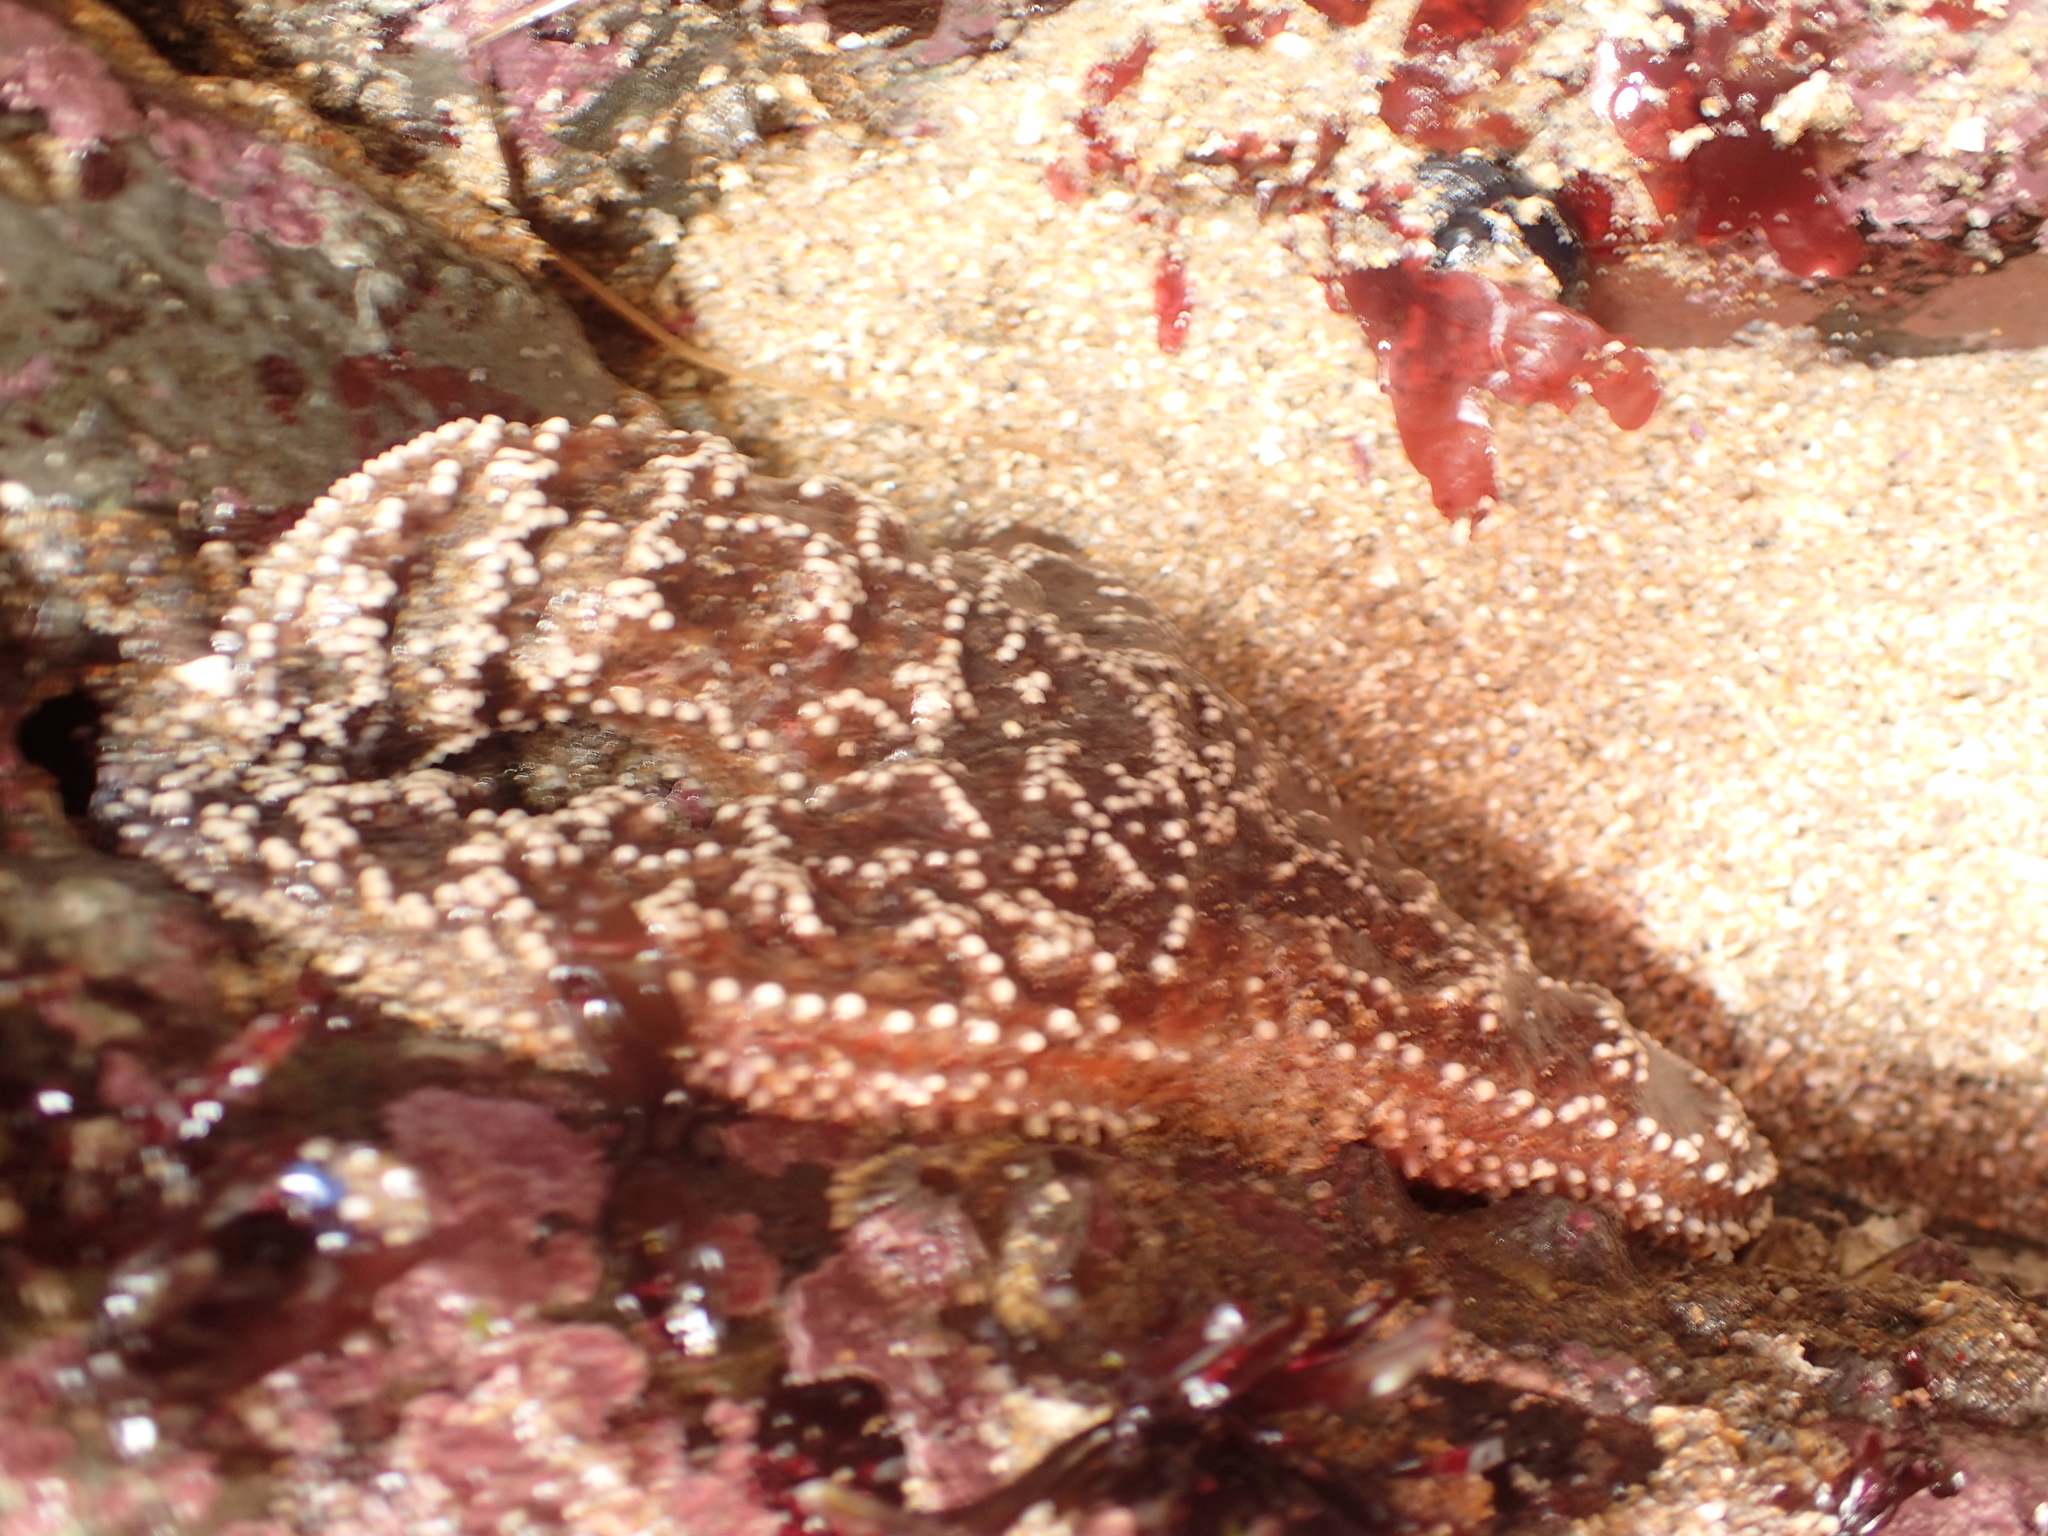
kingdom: Animalia
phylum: Echinodermata
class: Asteroidea
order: Forcipulatida
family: Asteriidae
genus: Pisaster
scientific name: Pisaster ochraceus
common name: Ochre stars
